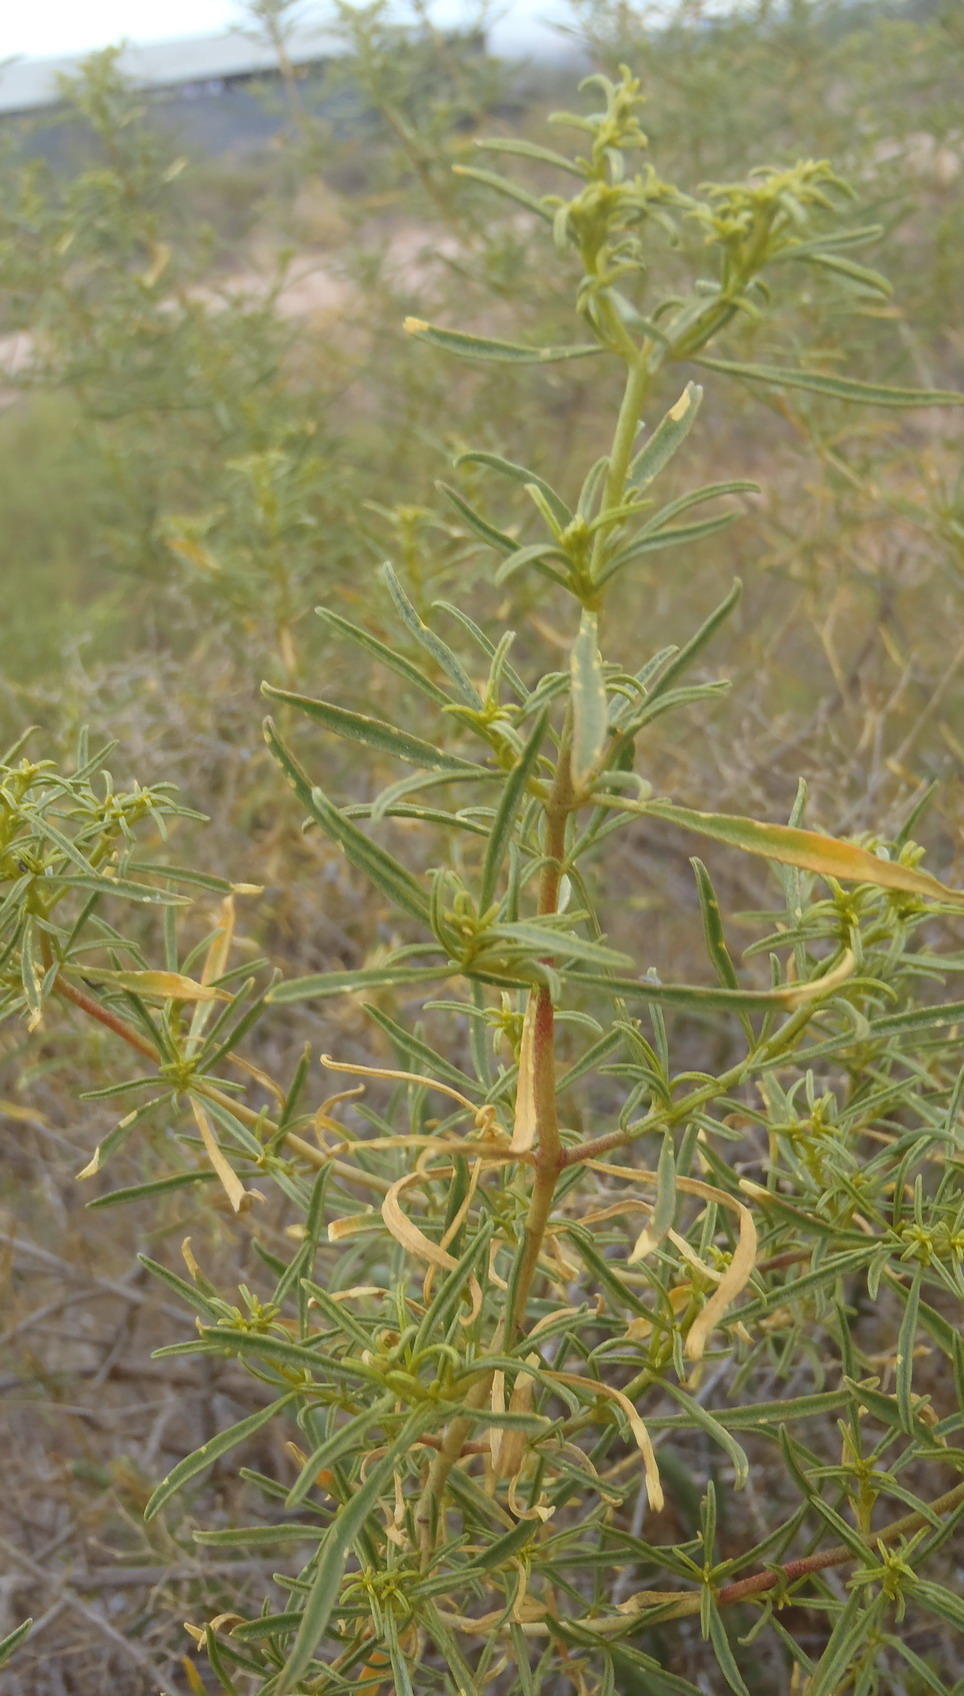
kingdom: Plantae
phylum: Tracheophyta
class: Magnoliopsida
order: Caryophyllales
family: Aizoaceae
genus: Aizoon
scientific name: Aizoon africanum
